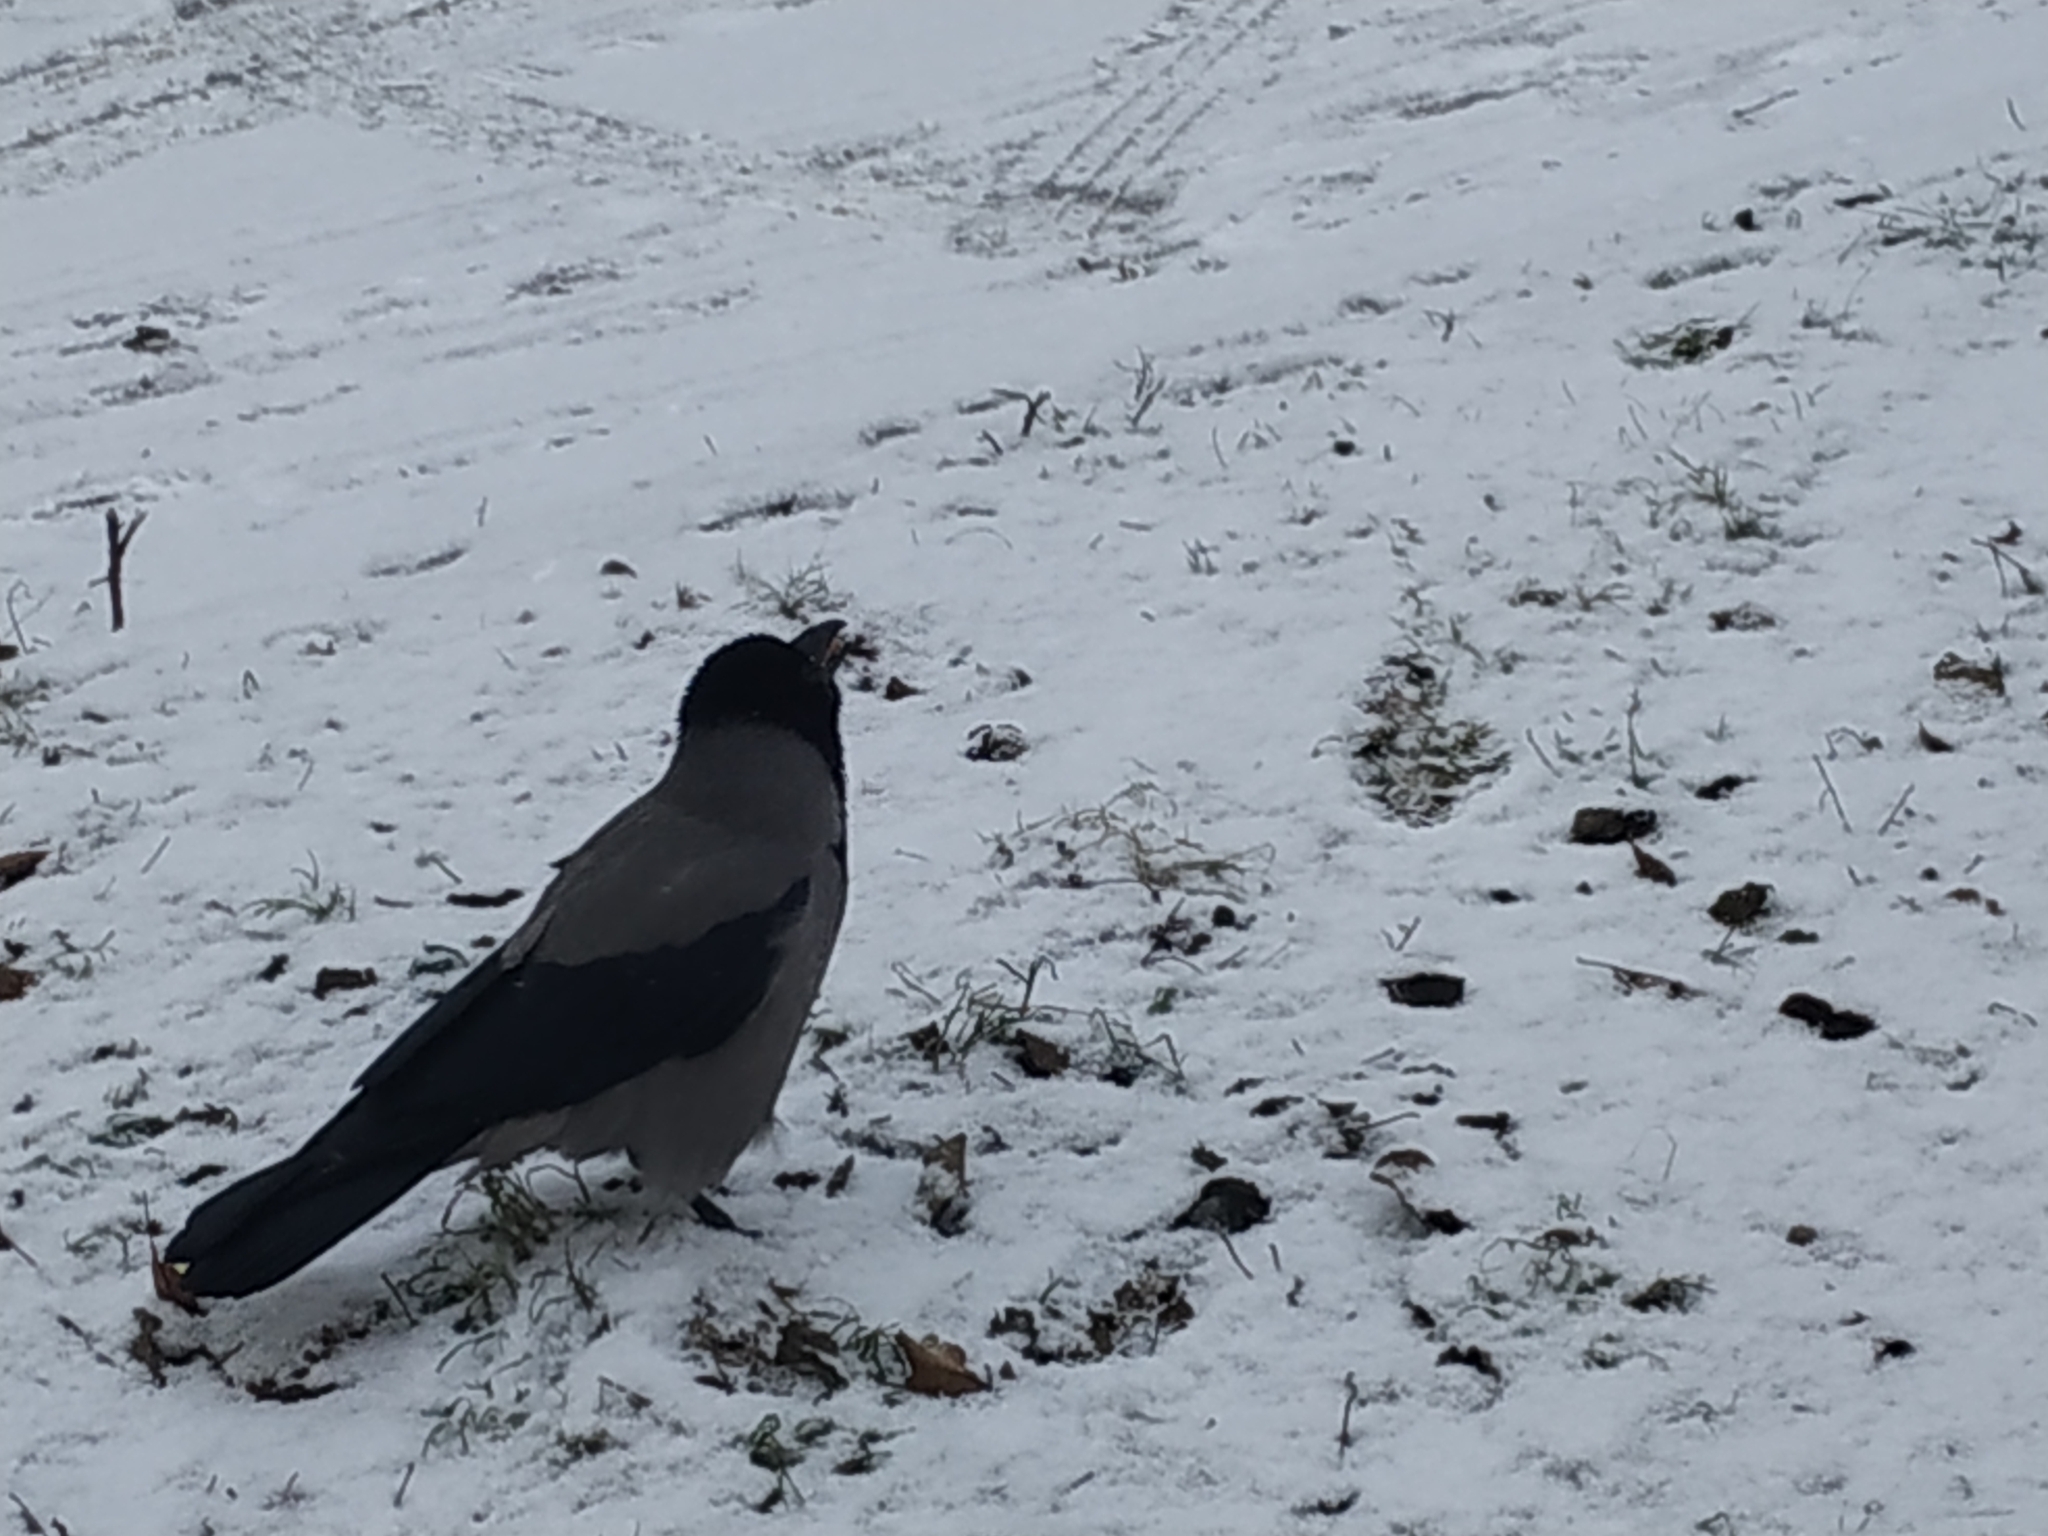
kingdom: Animalia
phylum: Chordata
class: Aves
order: Passeriformes
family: Corvidae
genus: Corvus
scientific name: Corvus cornix
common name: Hooded crow
